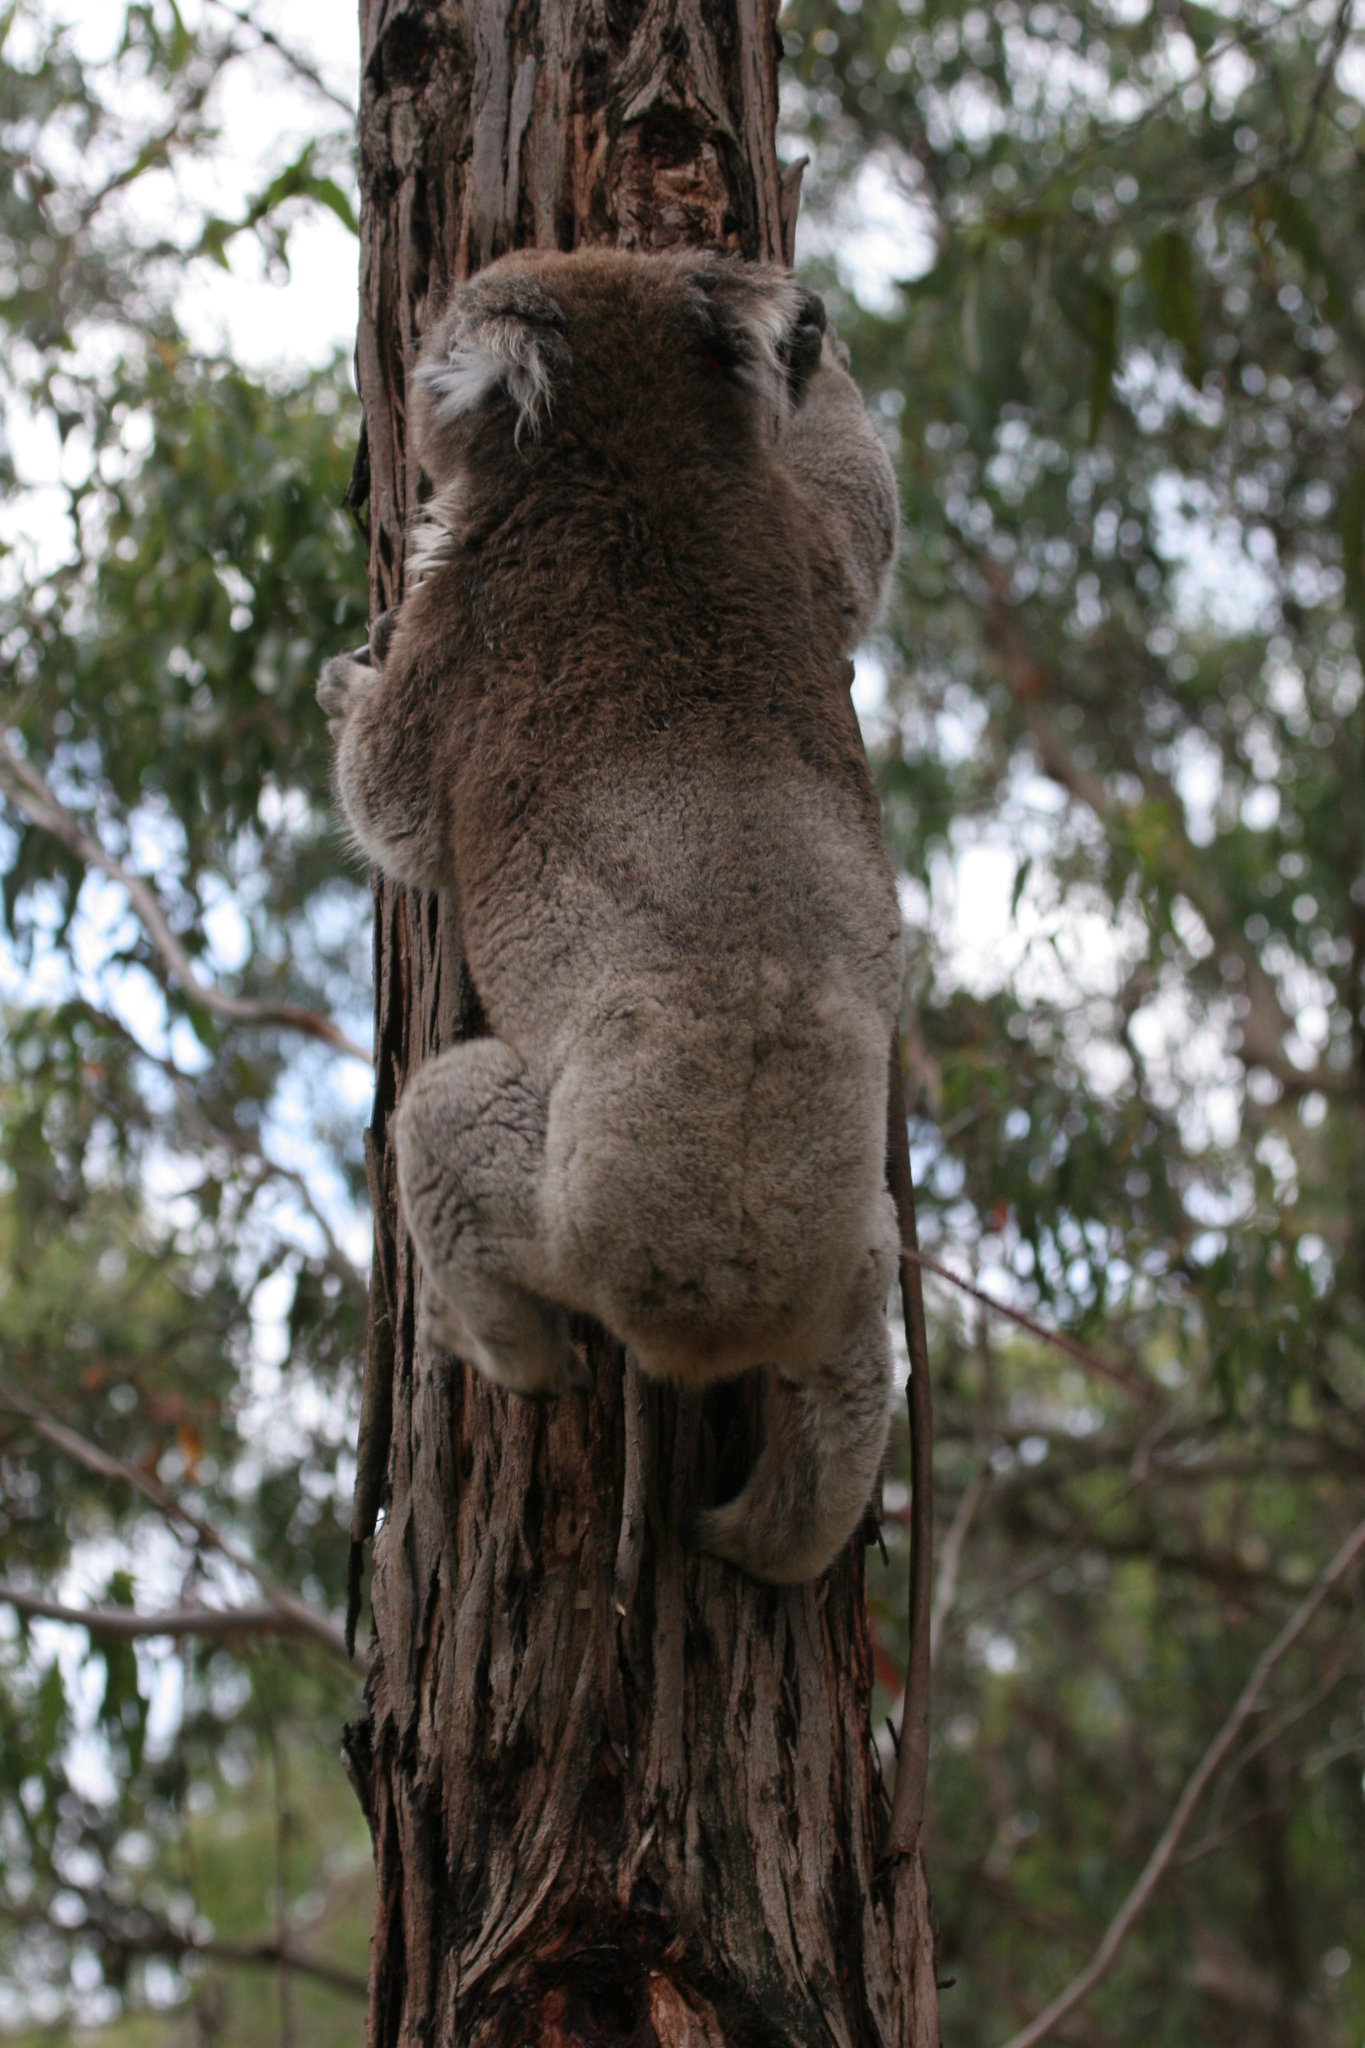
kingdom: Animalia
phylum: Chordata
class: Mammalia
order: Diprotodontia
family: Phascolarctidae
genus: Phascolarctos
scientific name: Phascolarctos cinereus
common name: Koala
